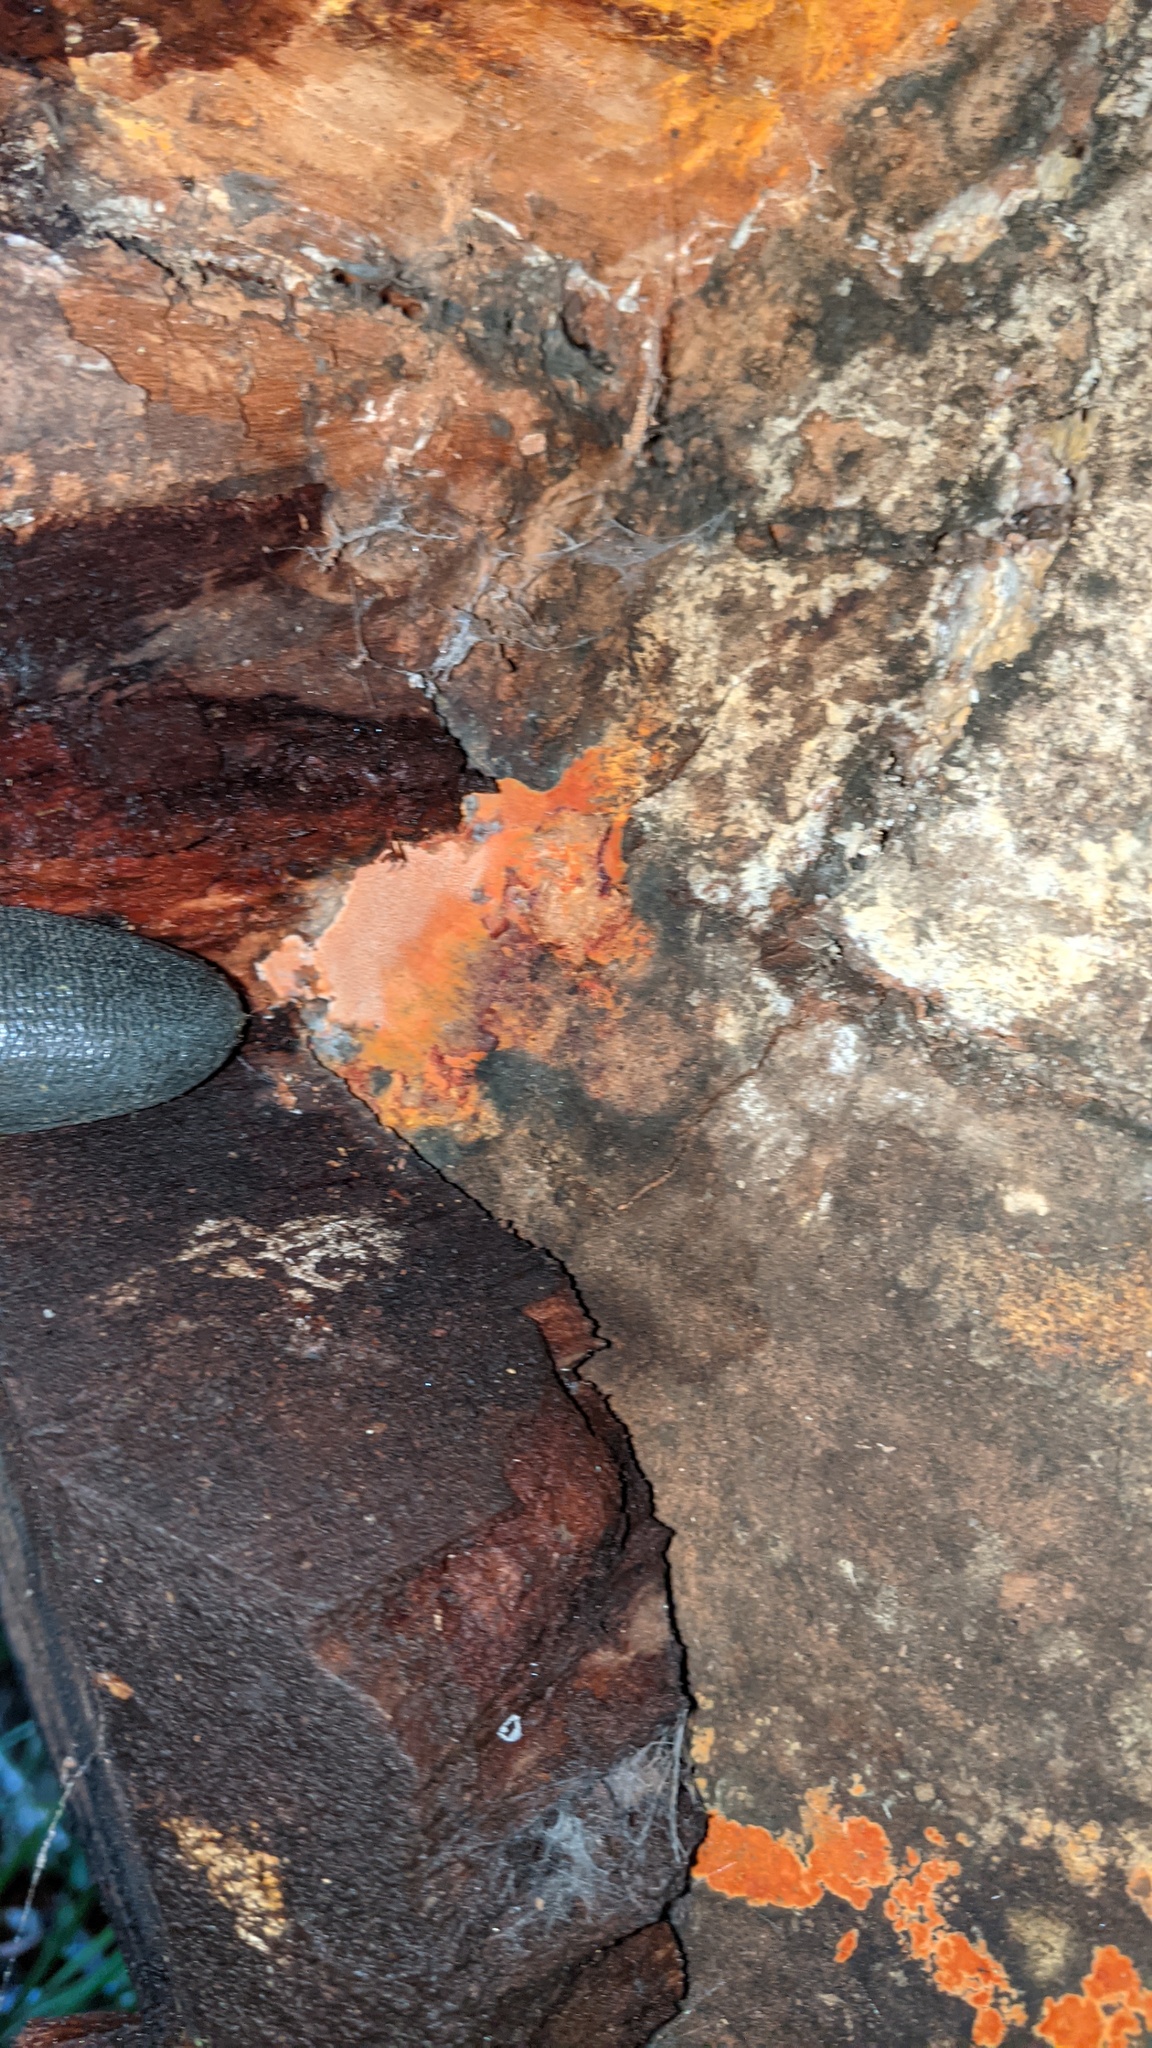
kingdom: Fungi
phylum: Basidiomycota
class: Agaricomycetes
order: Polyporales
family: Fomitopsidaceae
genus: Taiwanofungus
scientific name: Taiwanofungus camphoratus
